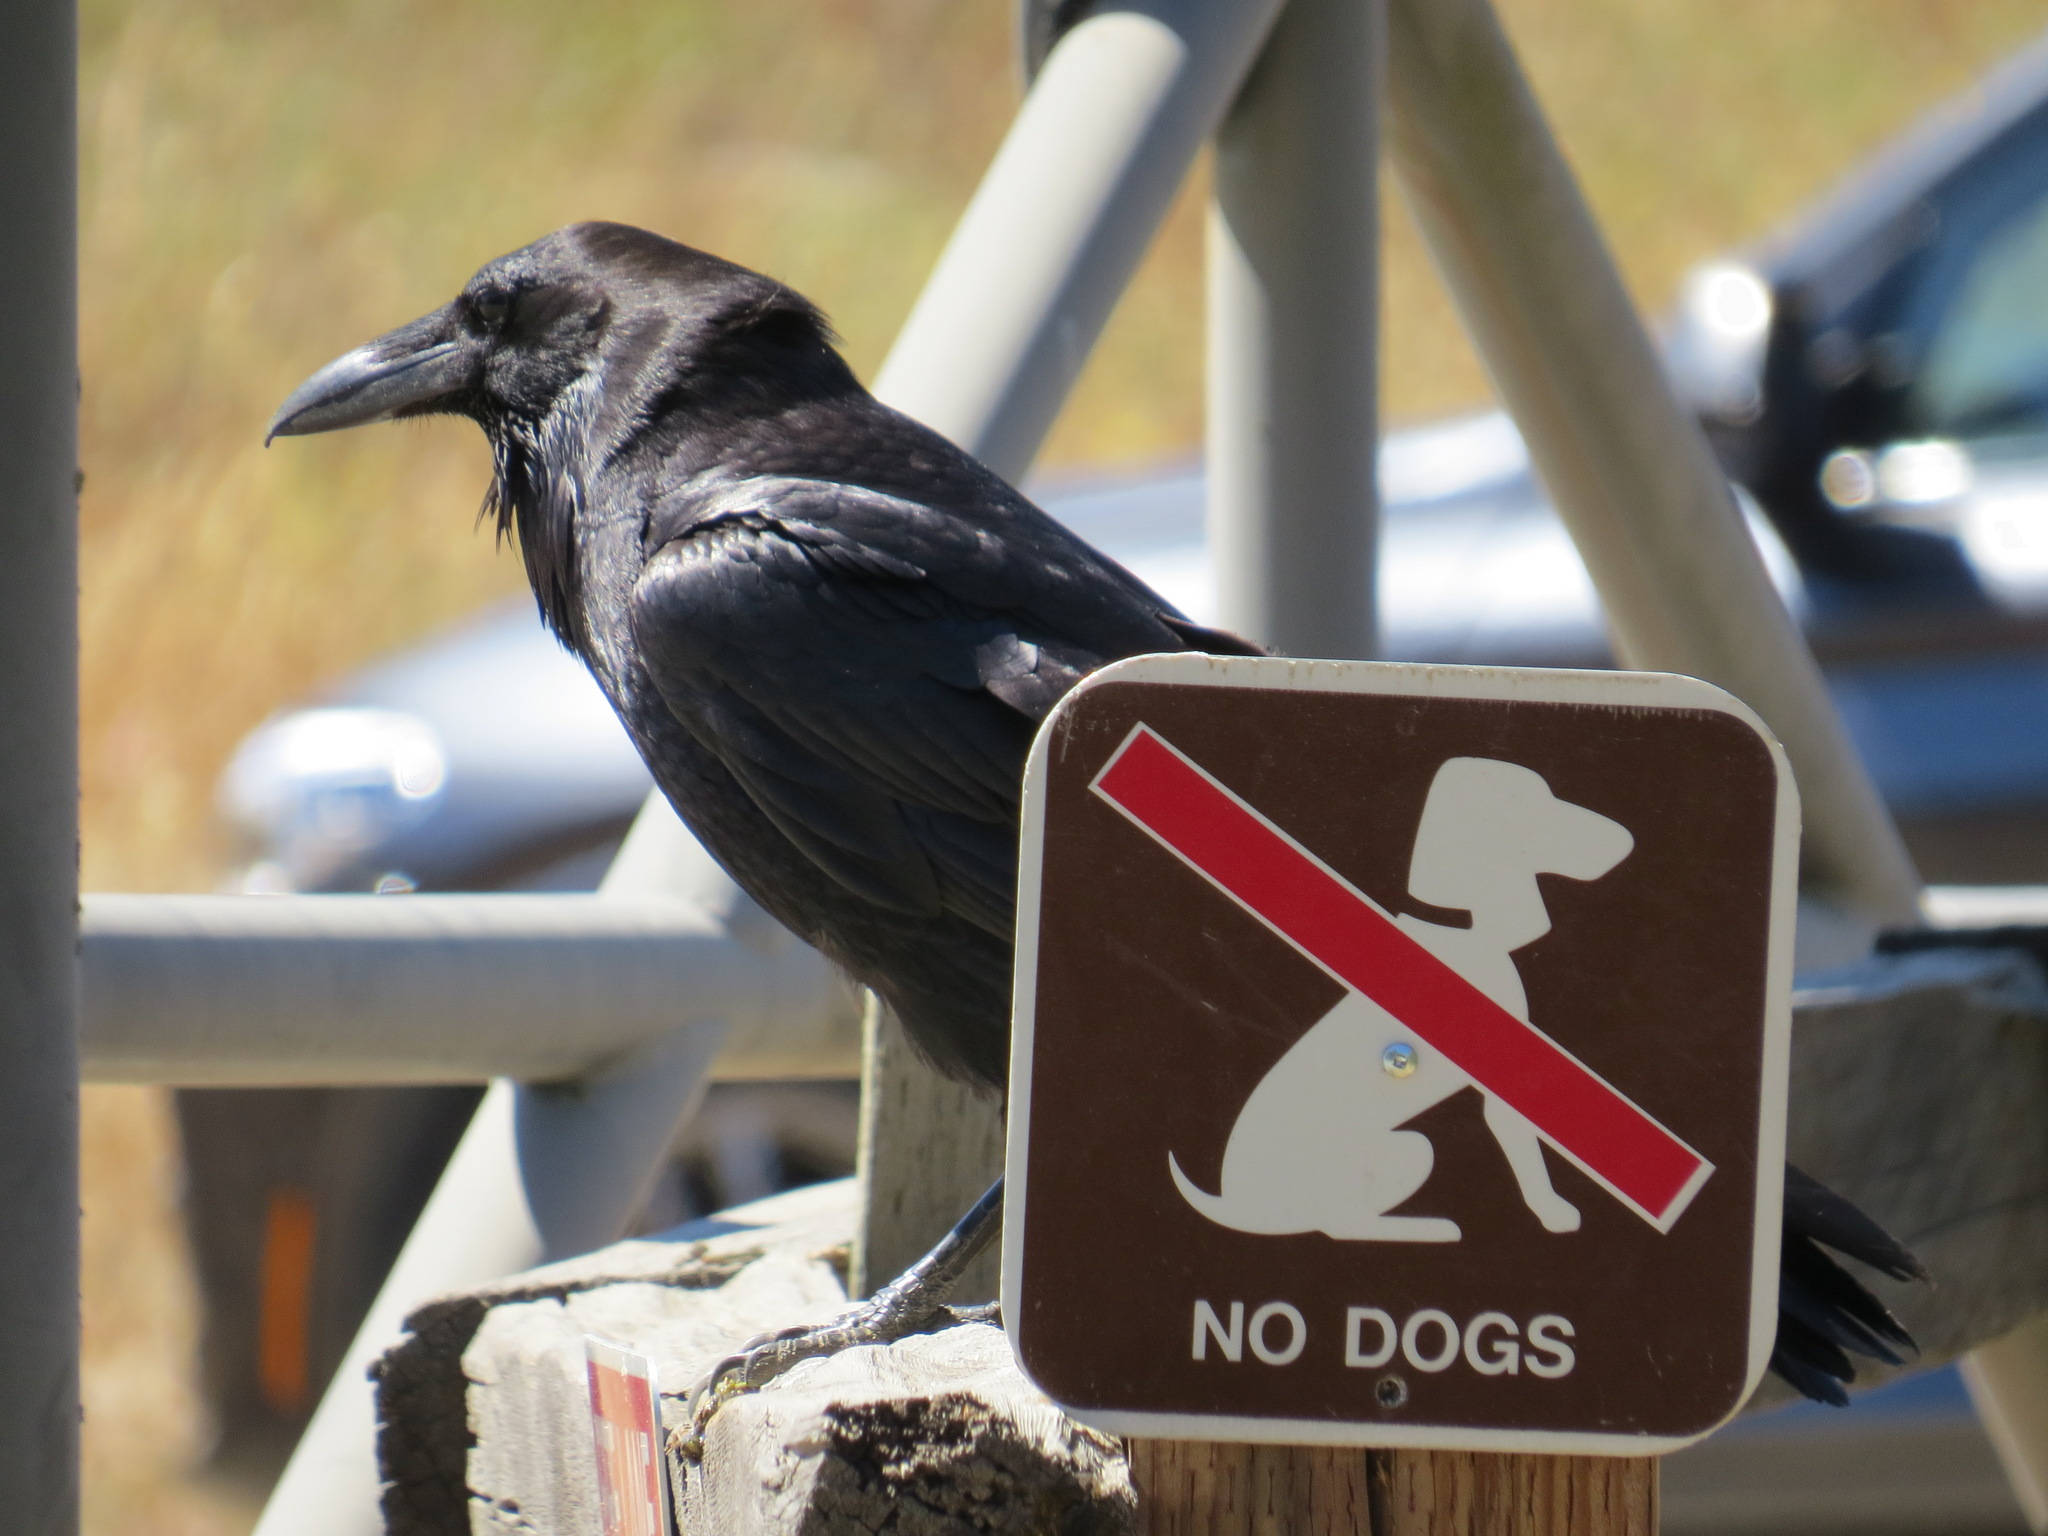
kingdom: Animalia
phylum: Chordata
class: Aves
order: Passeriformes
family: Corvidae
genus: Corvus
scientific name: Corvus corax
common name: Common raven
